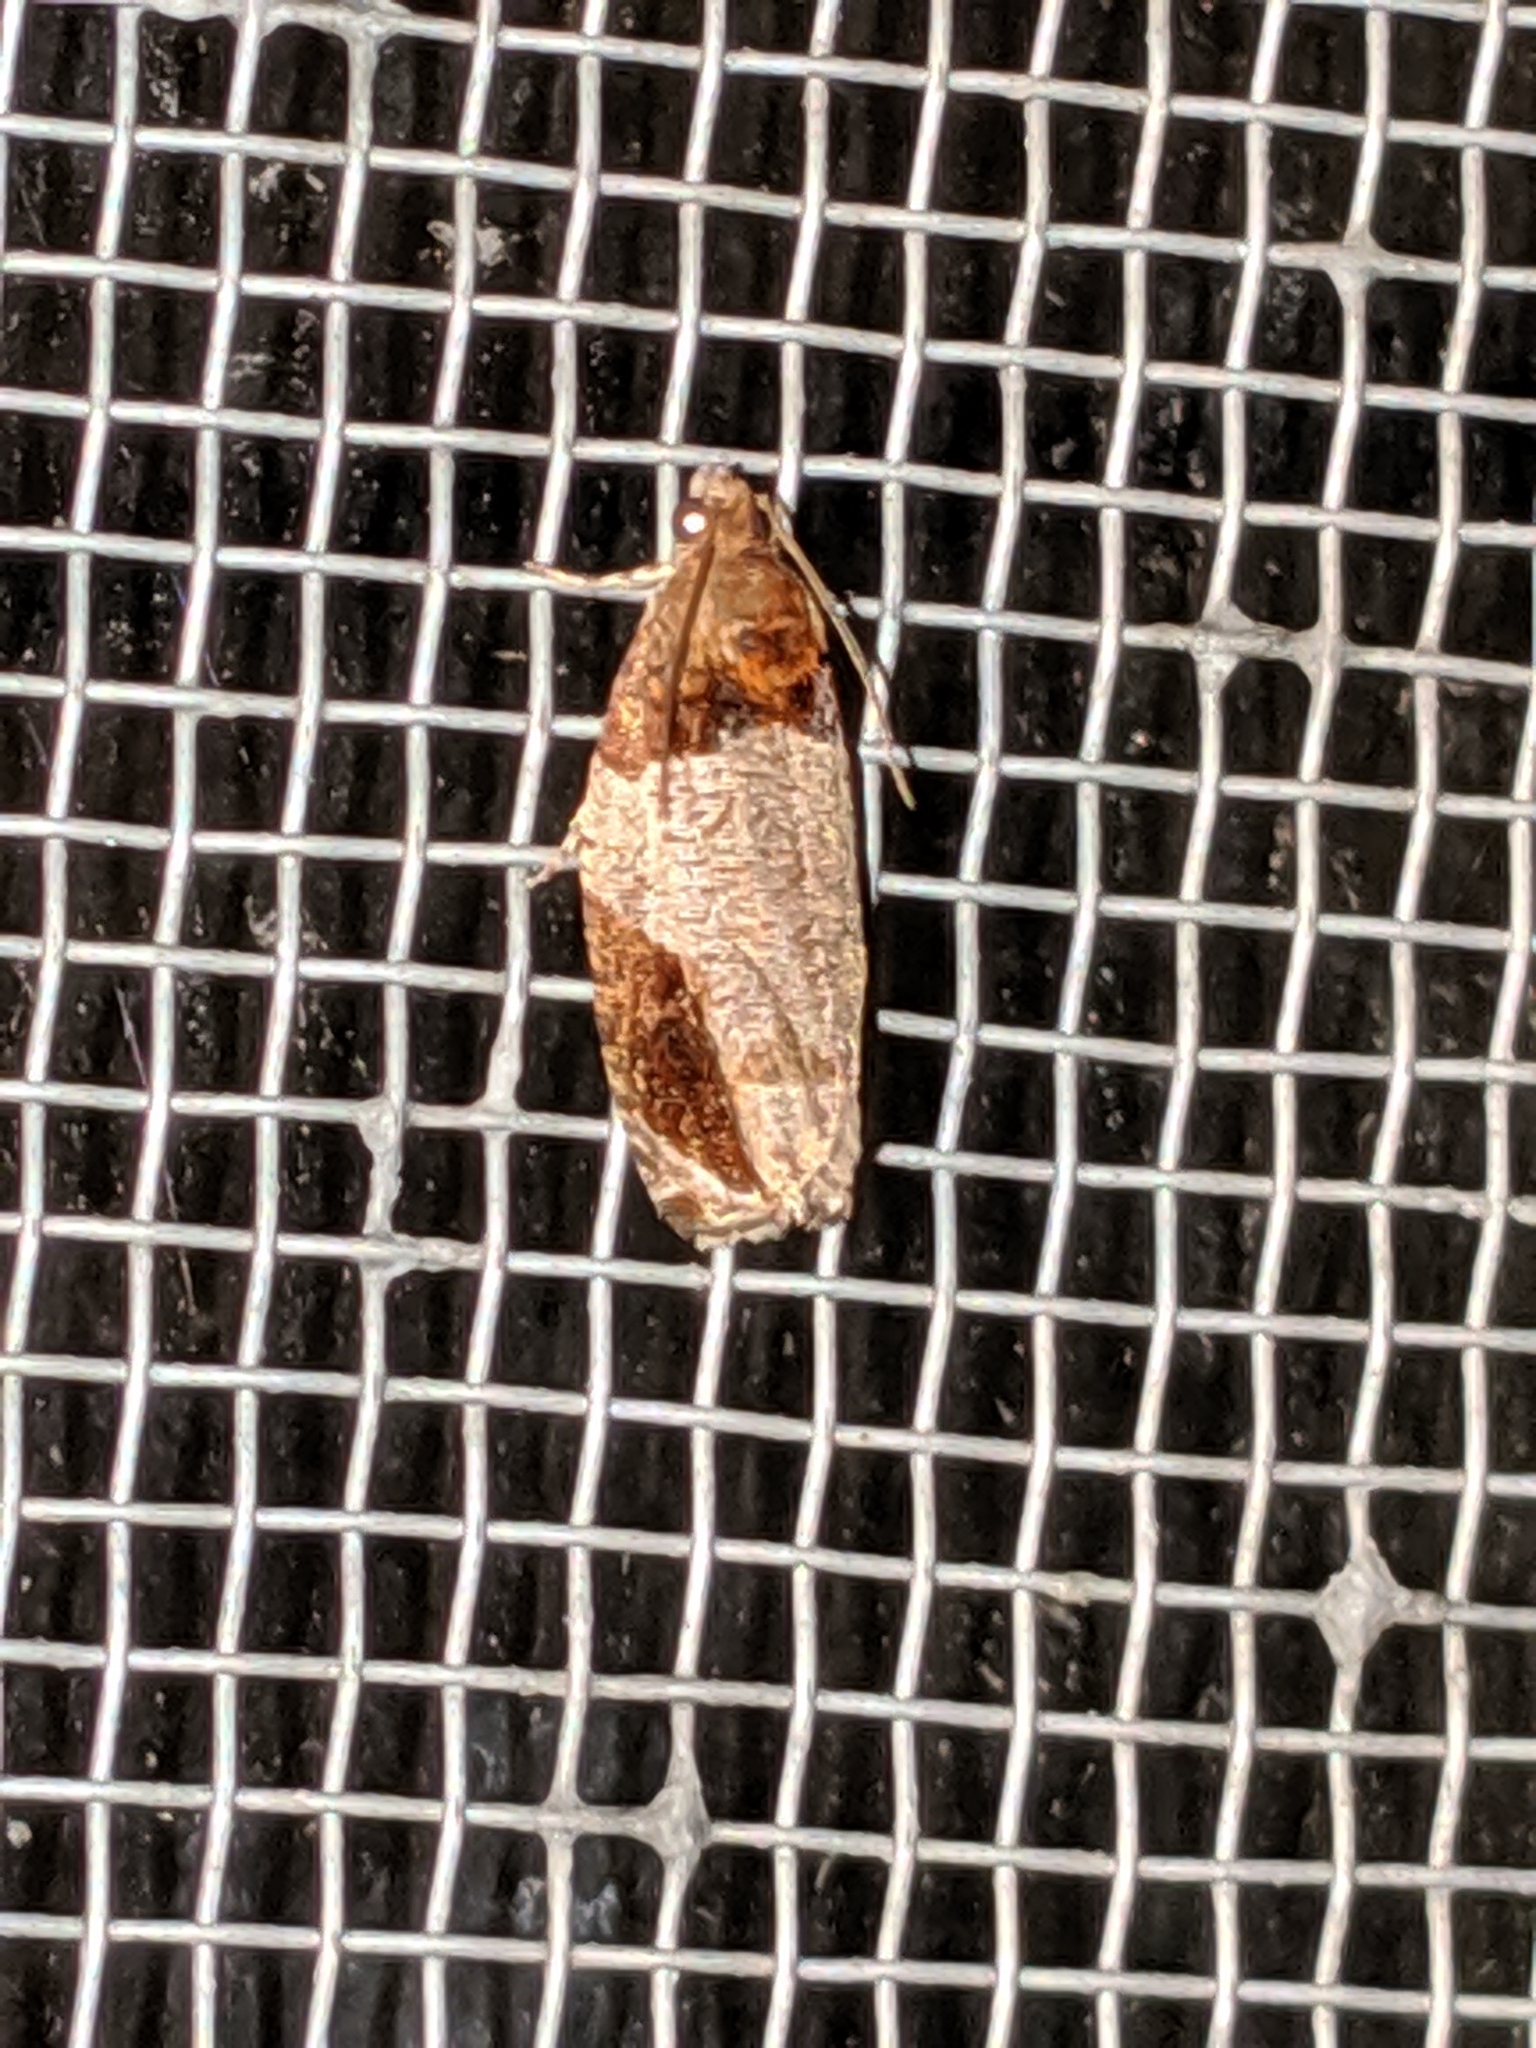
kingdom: Animalia
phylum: Arthropoda
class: Insecta
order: Lepidoptera
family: Tortricidae
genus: Olethreutes
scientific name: Olethreutes ferriferana
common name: Hydrangea leaftier moth
